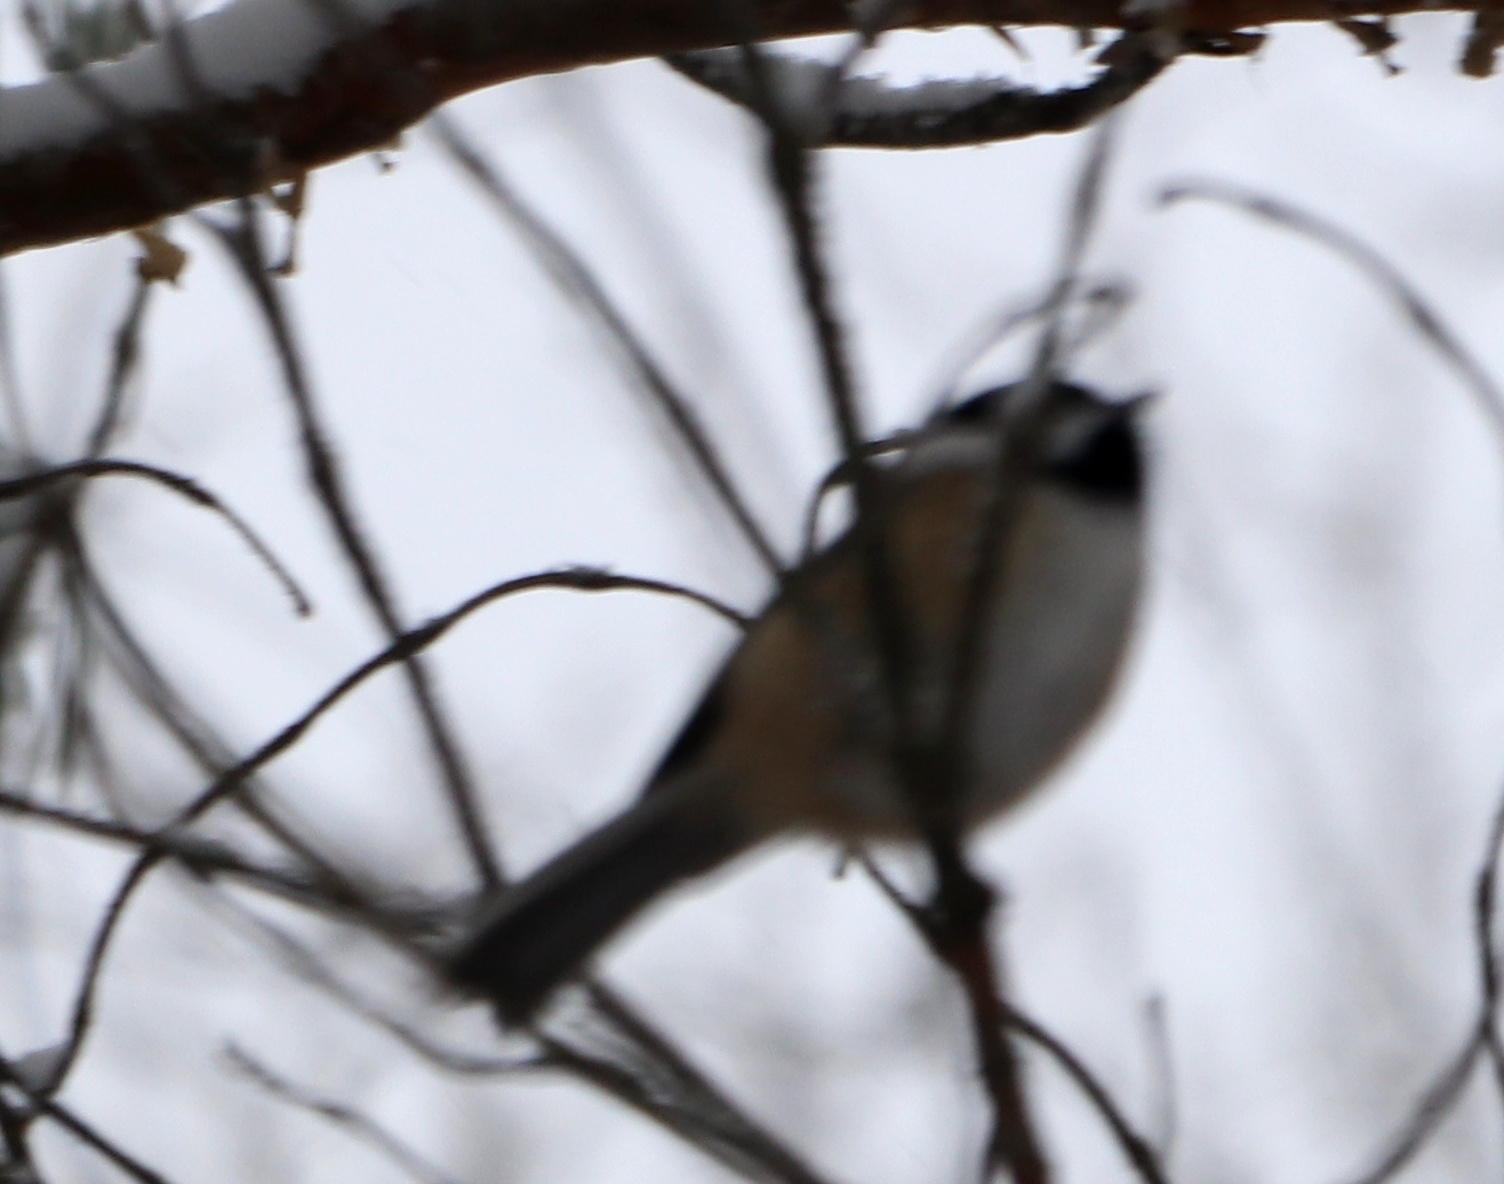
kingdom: Animalia
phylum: Chordata
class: Aves
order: Passeriformes
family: Paridae
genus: Poecile
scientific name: Poecile atricapillus
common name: Black-capped chickadee
